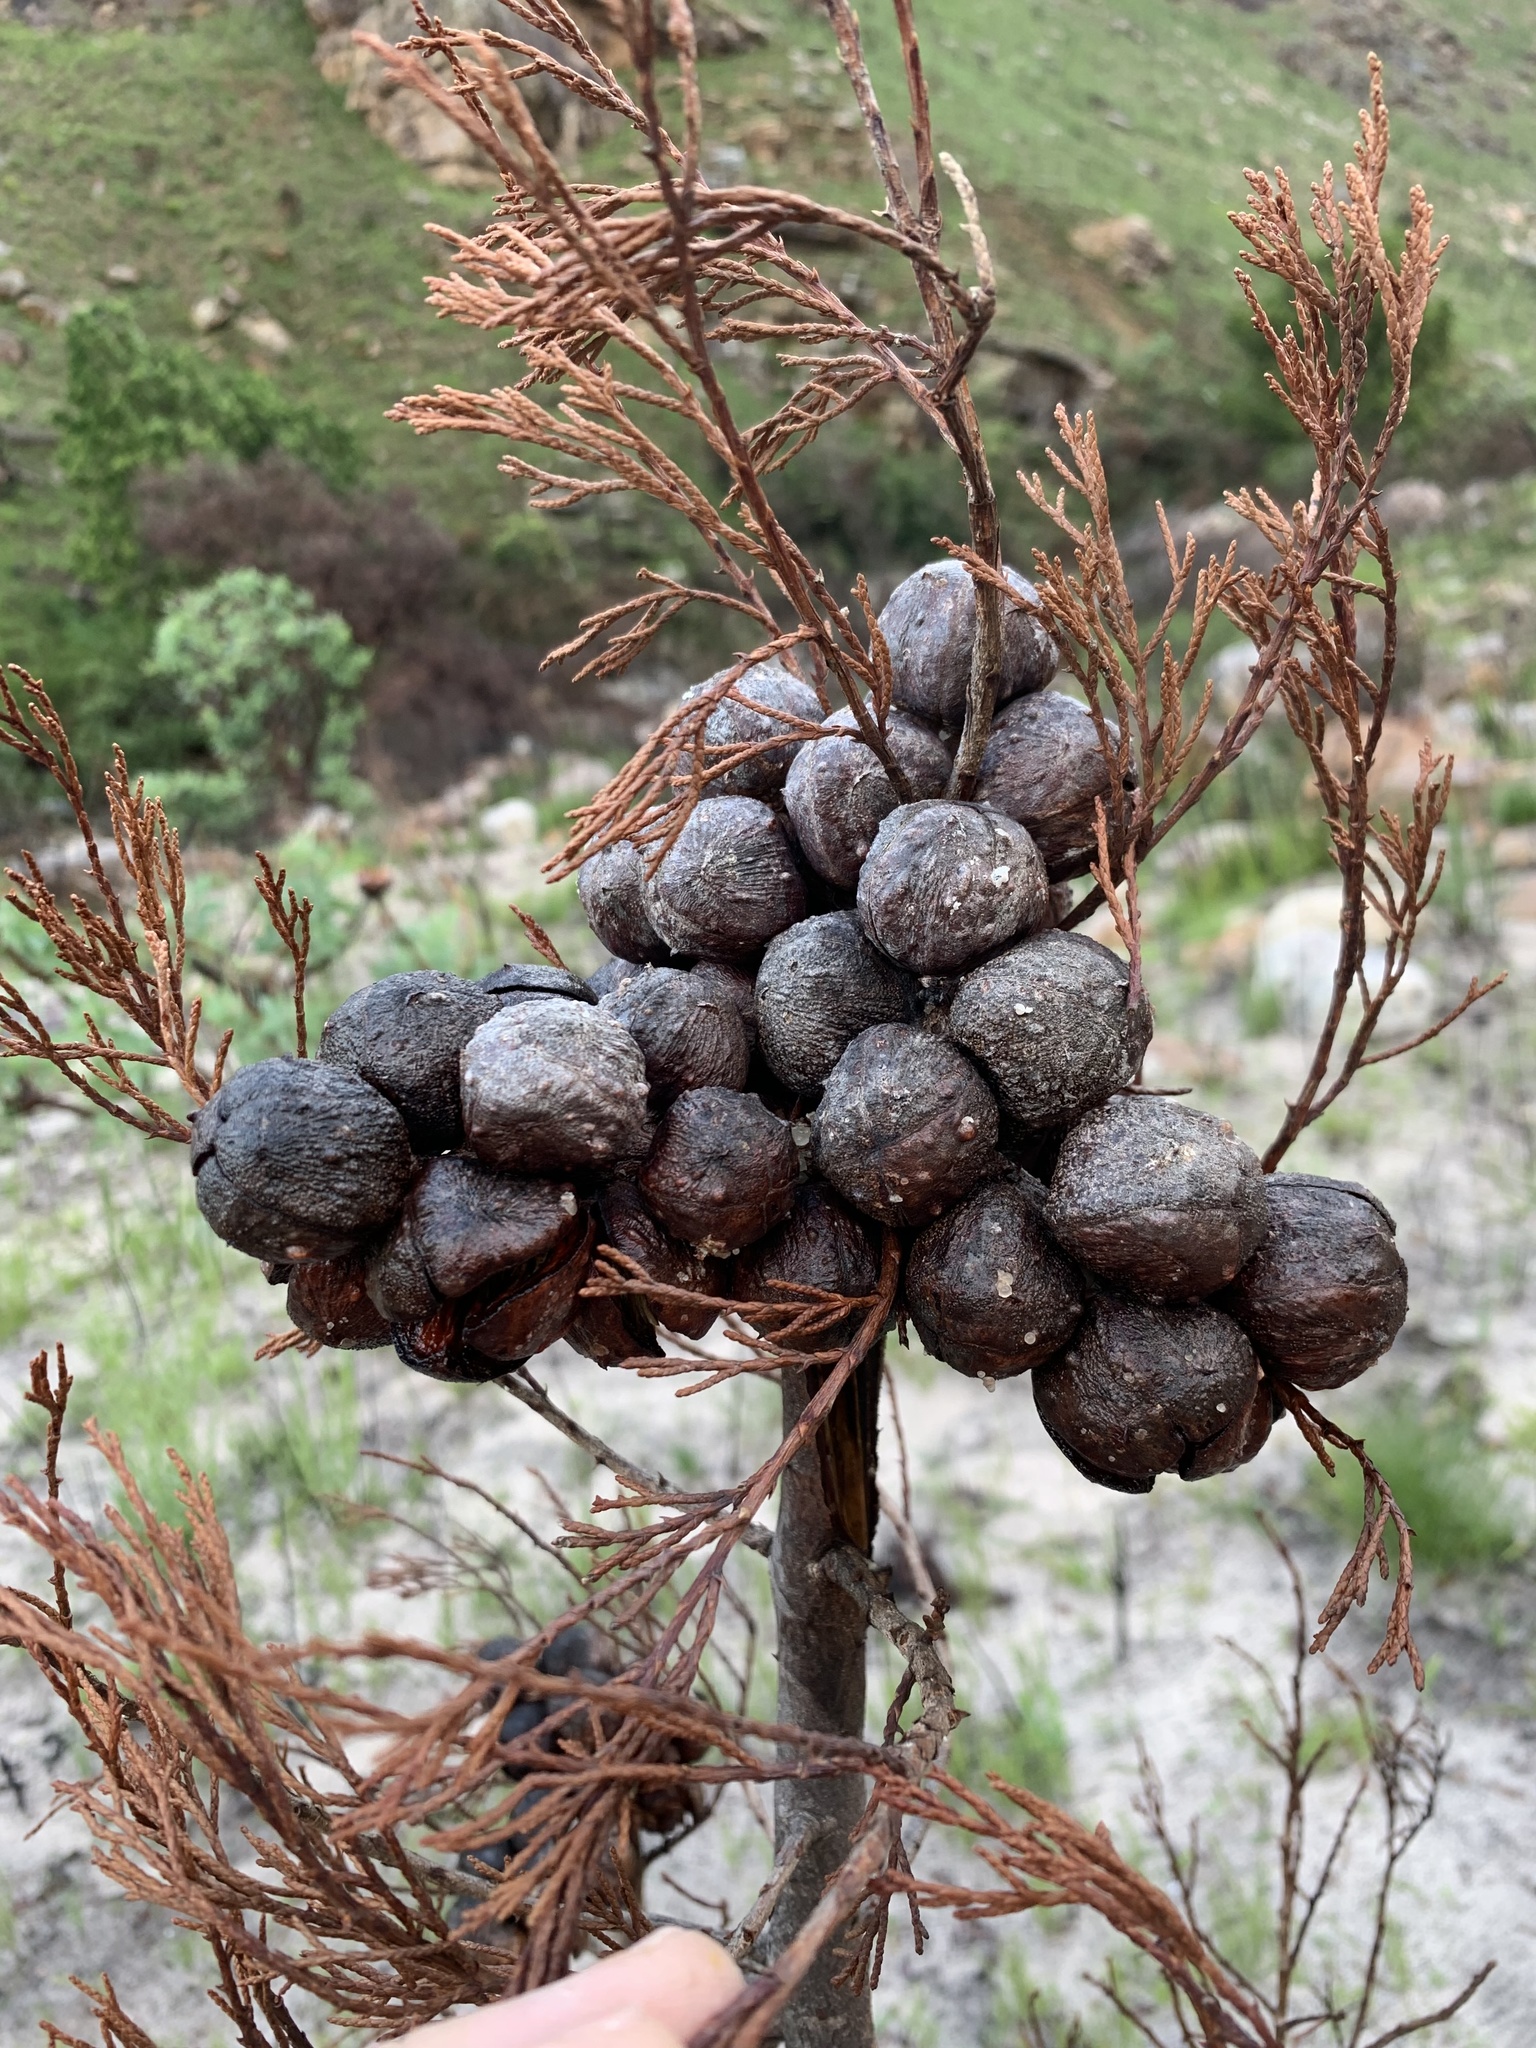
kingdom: Plantae
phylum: Tracheophyta
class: Pinopsida
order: Pinales
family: Cupressaceae
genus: Widdringtonia
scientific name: Widdringtonia nodiflora
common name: Cape cypress
